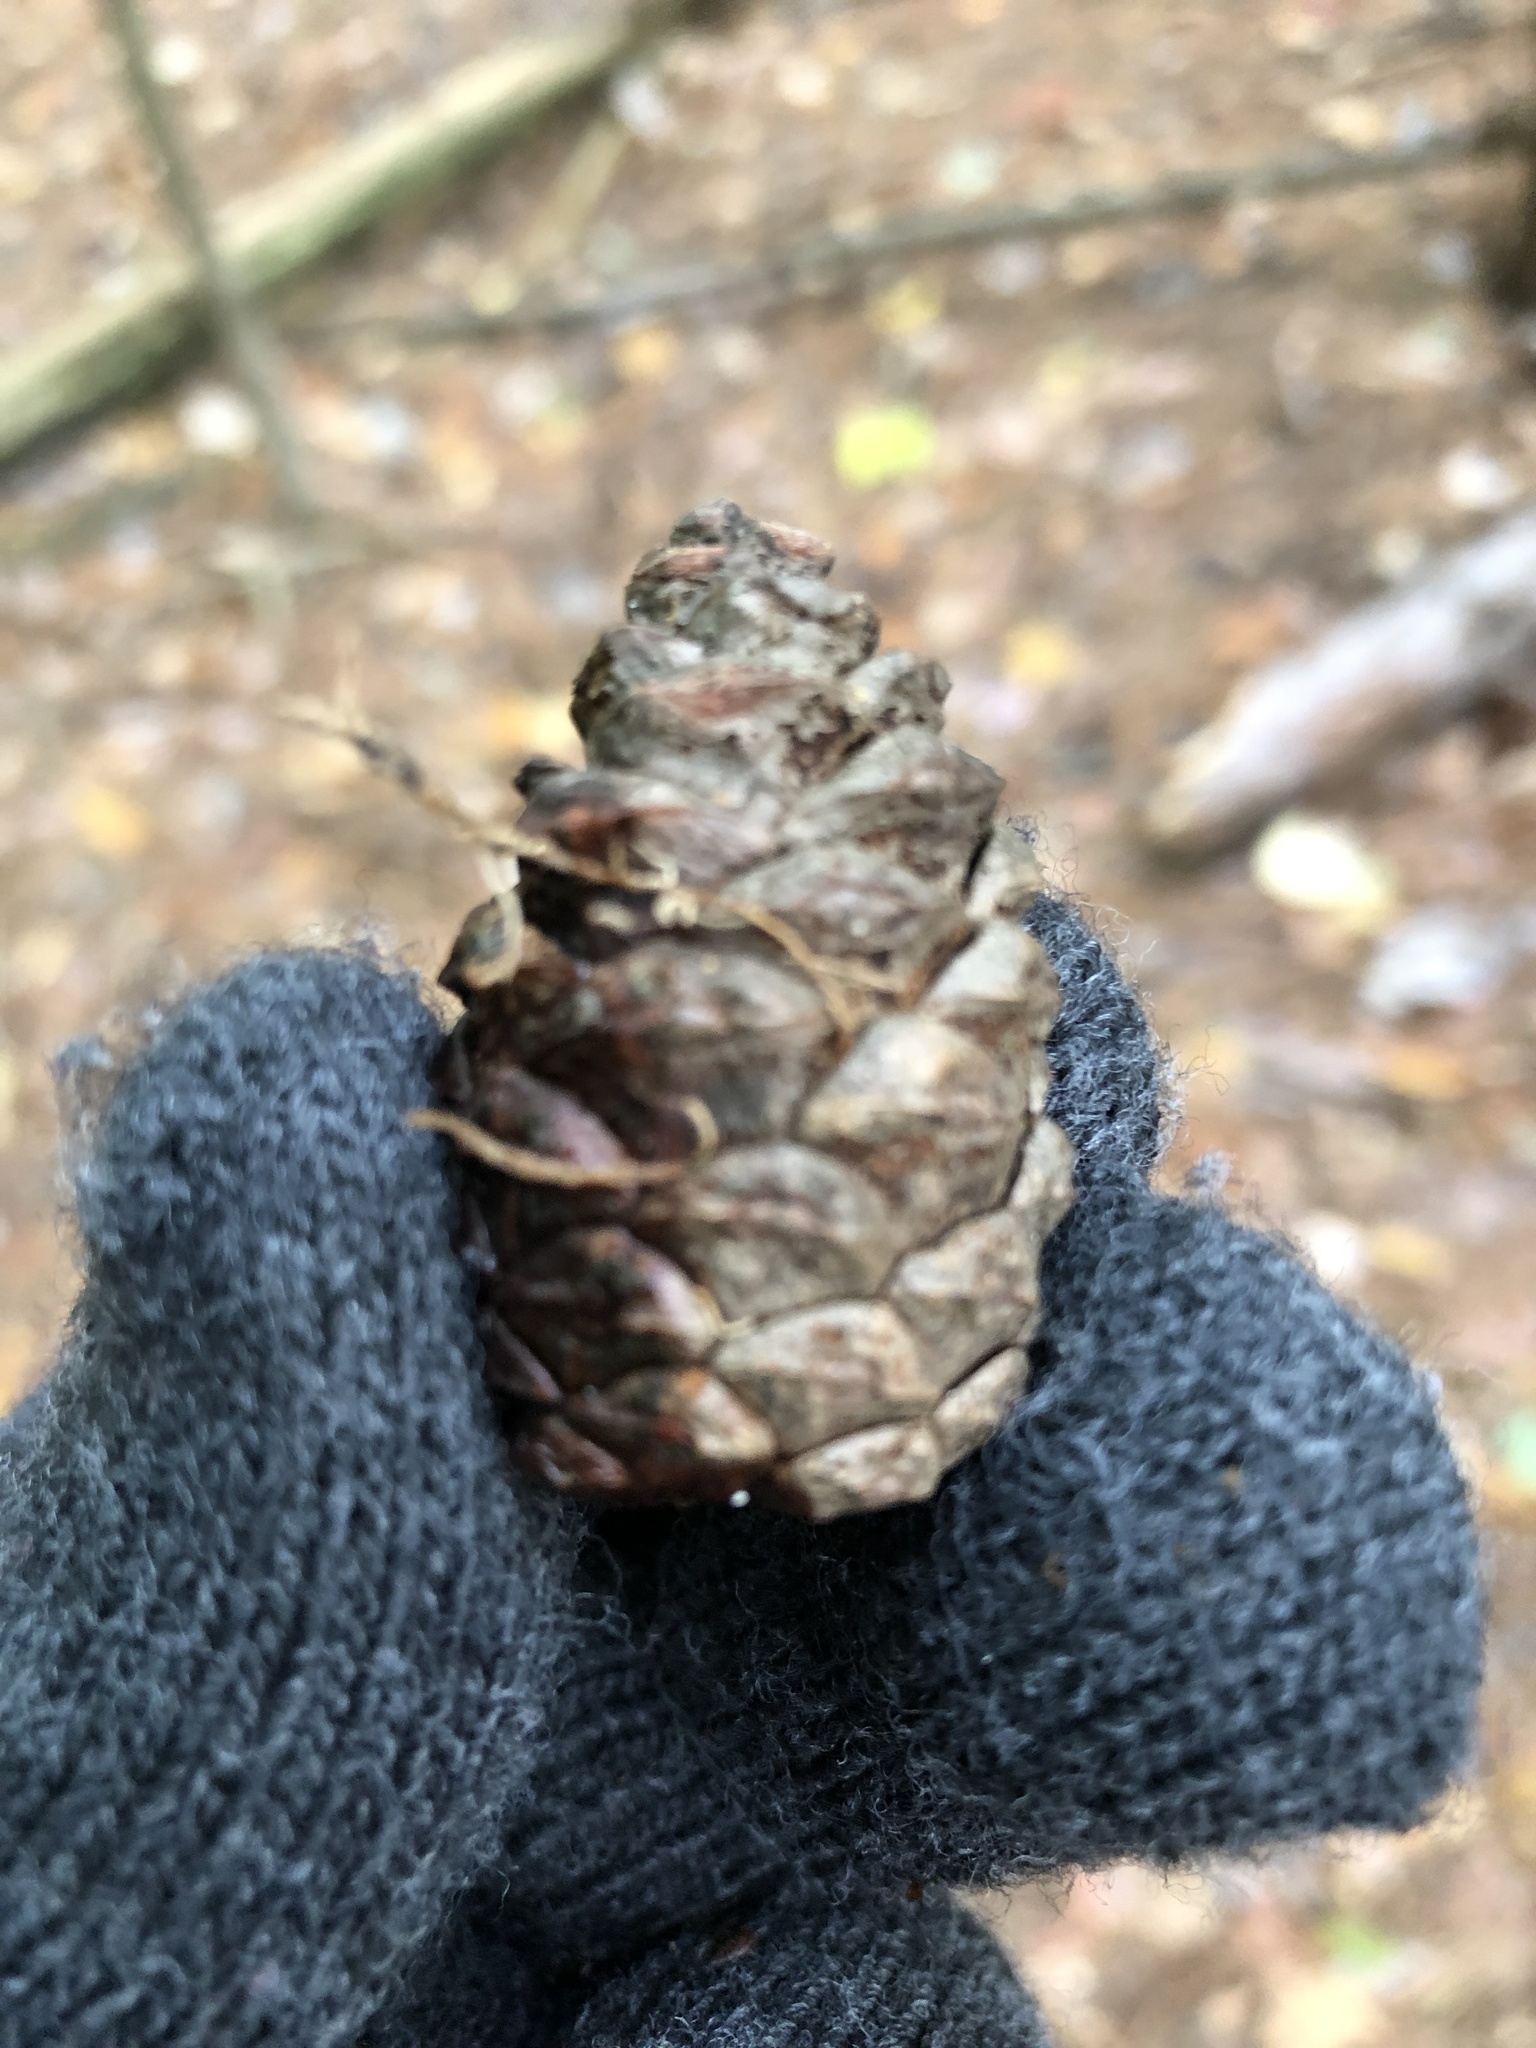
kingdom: Plantae
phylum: Tracheophyta
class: Pinopsida
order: Pinales
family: Pinaceae
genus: Pinus
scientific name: Pinus resinosa
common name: Norway pine
